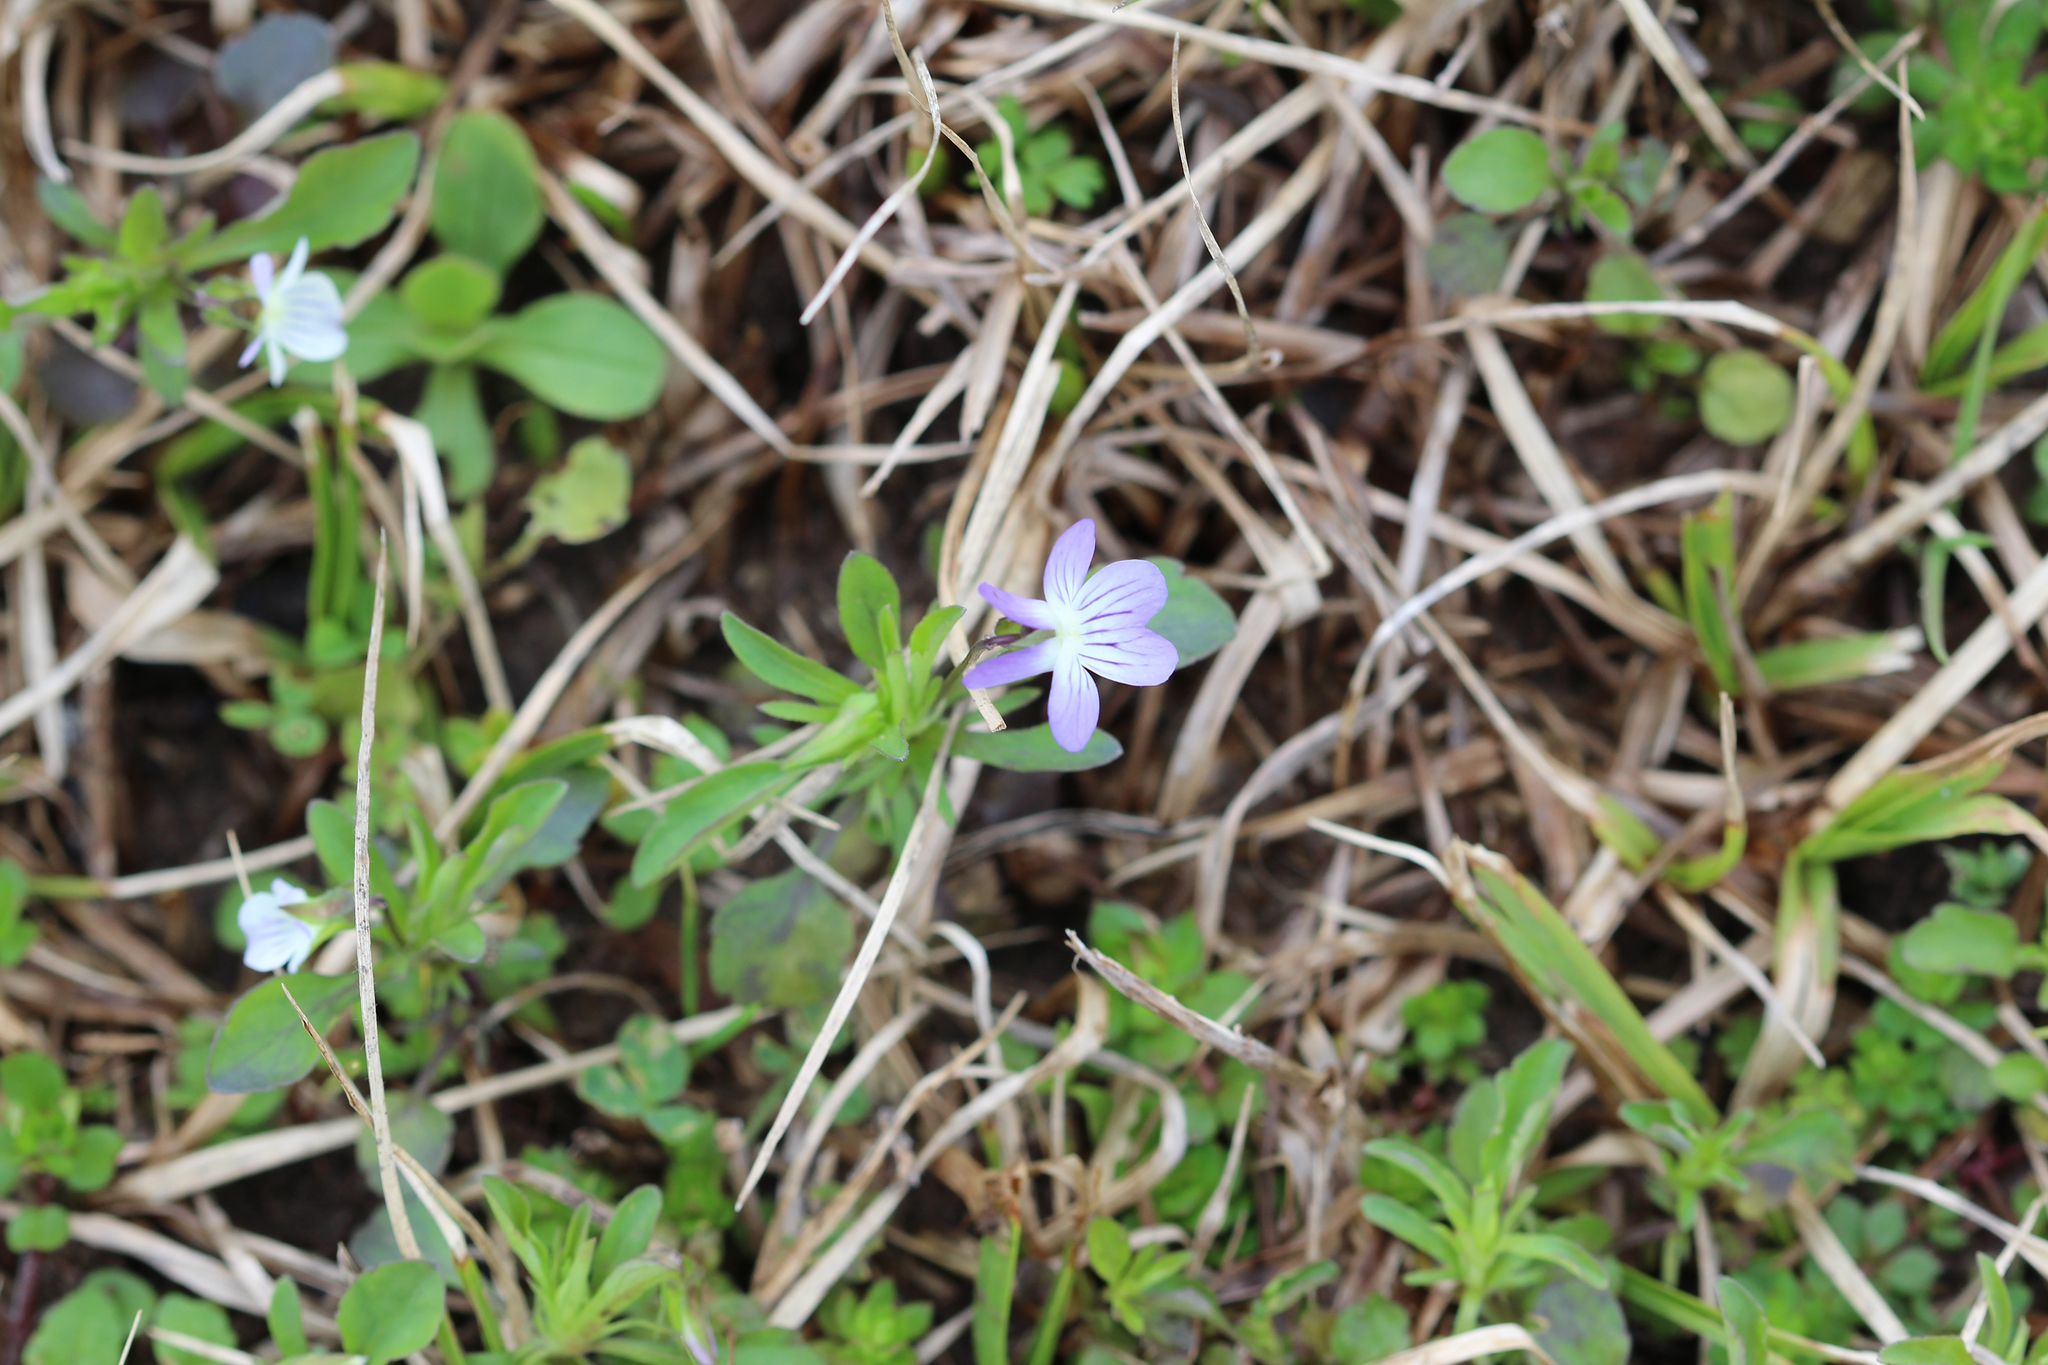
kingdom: Plantae
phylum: Tracheophyta
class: Magnoliopsida
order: Malpighiales
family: Violaceae
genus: Viola
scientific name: Viola rafinesquei
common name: American field pansy
